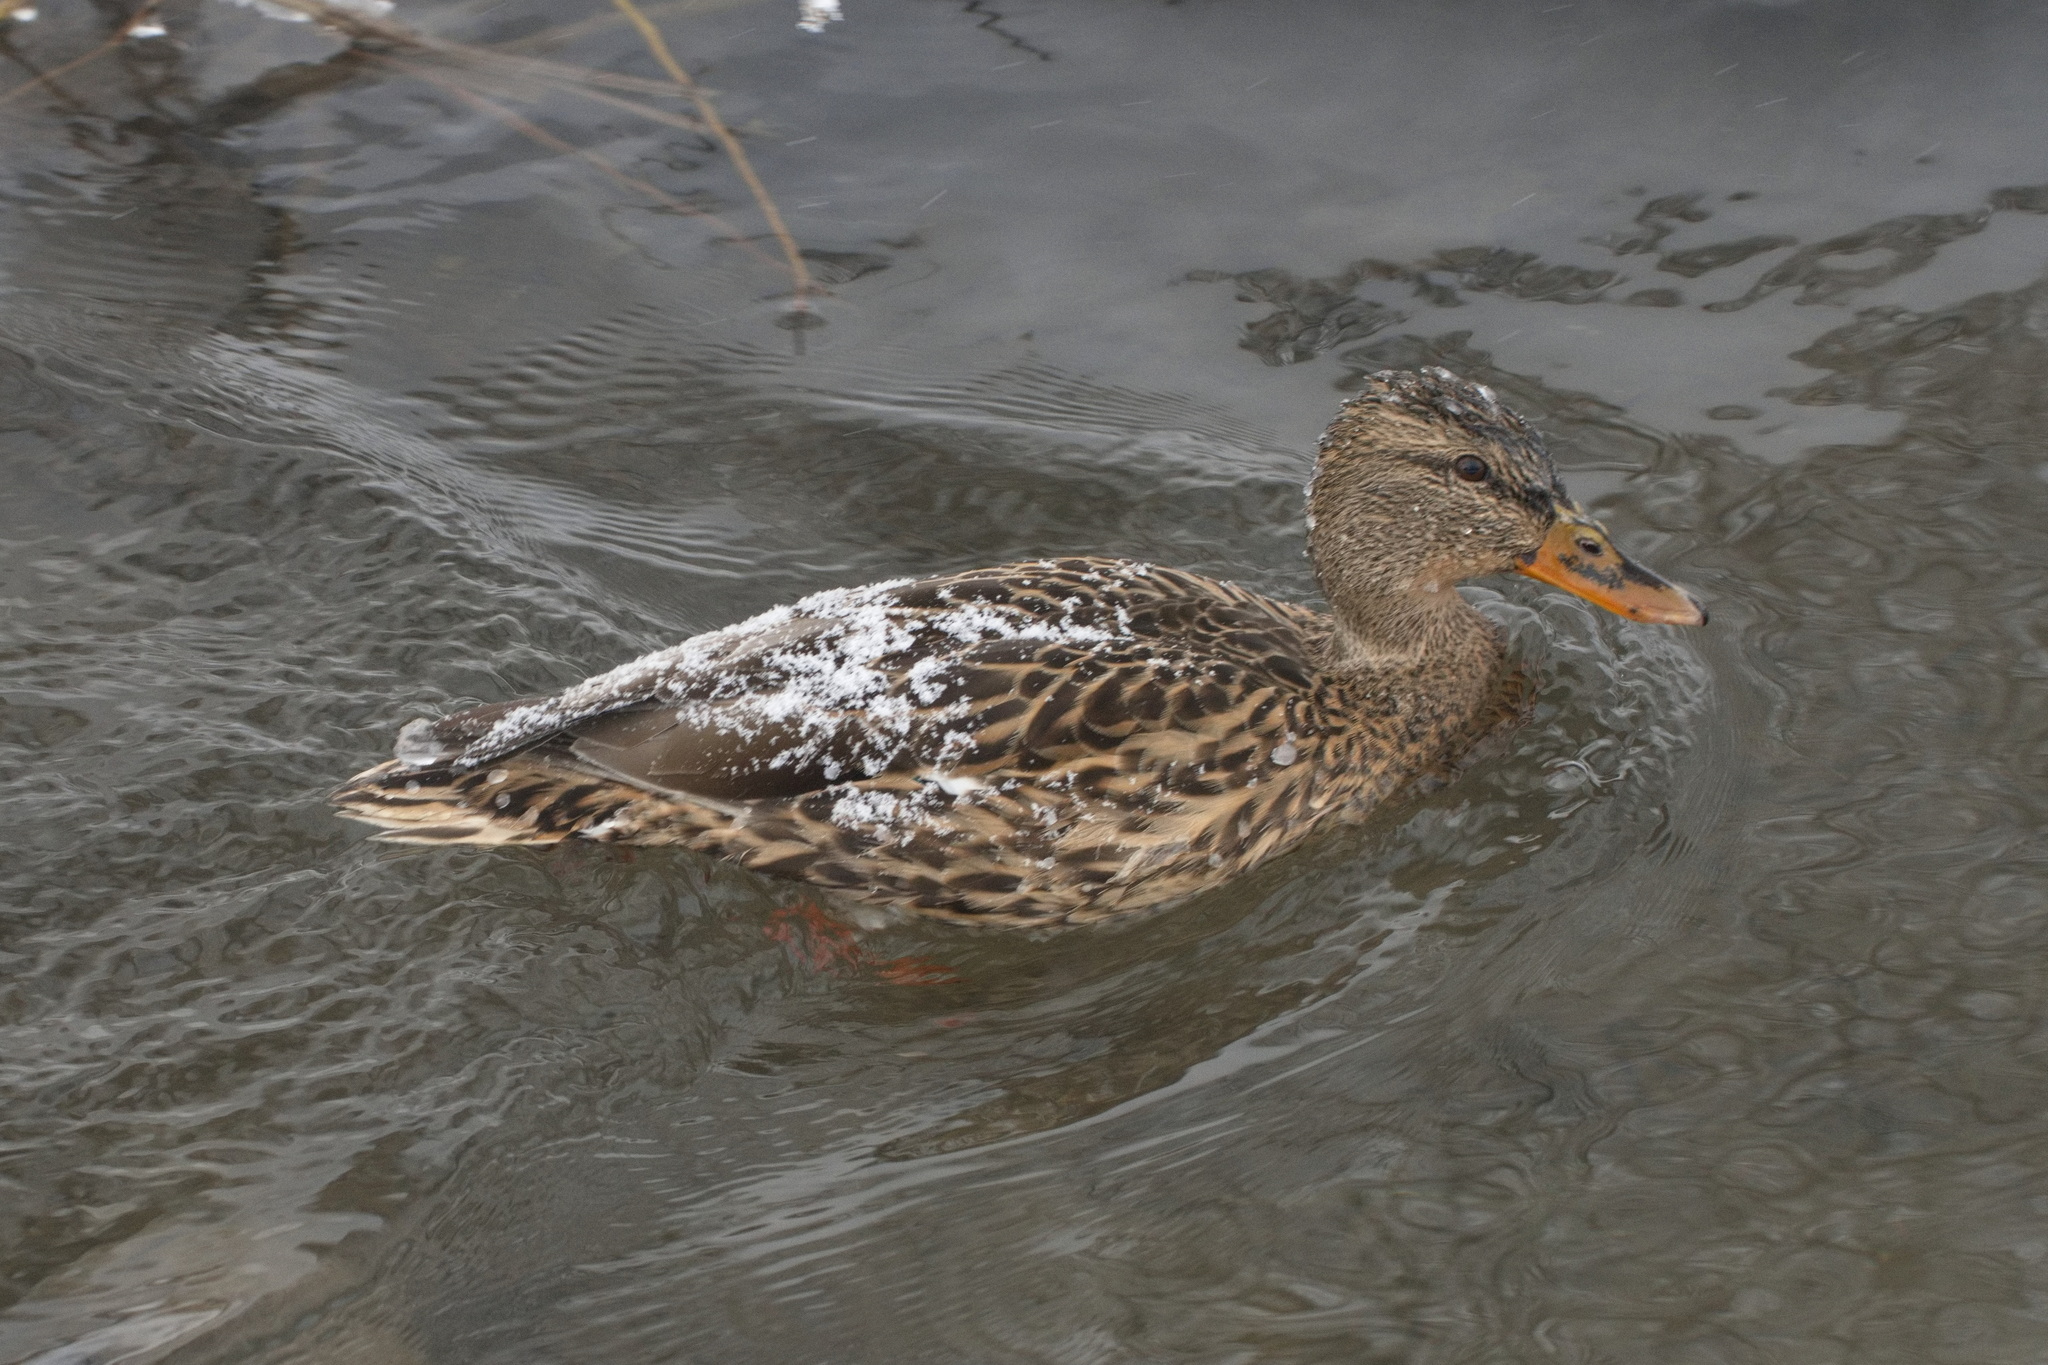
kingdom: Animalia
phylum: Chordata
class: Aves
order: Anseriformes
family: Anatidae
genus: Anas
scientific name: Anas platyrhynchos
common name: Mallard
